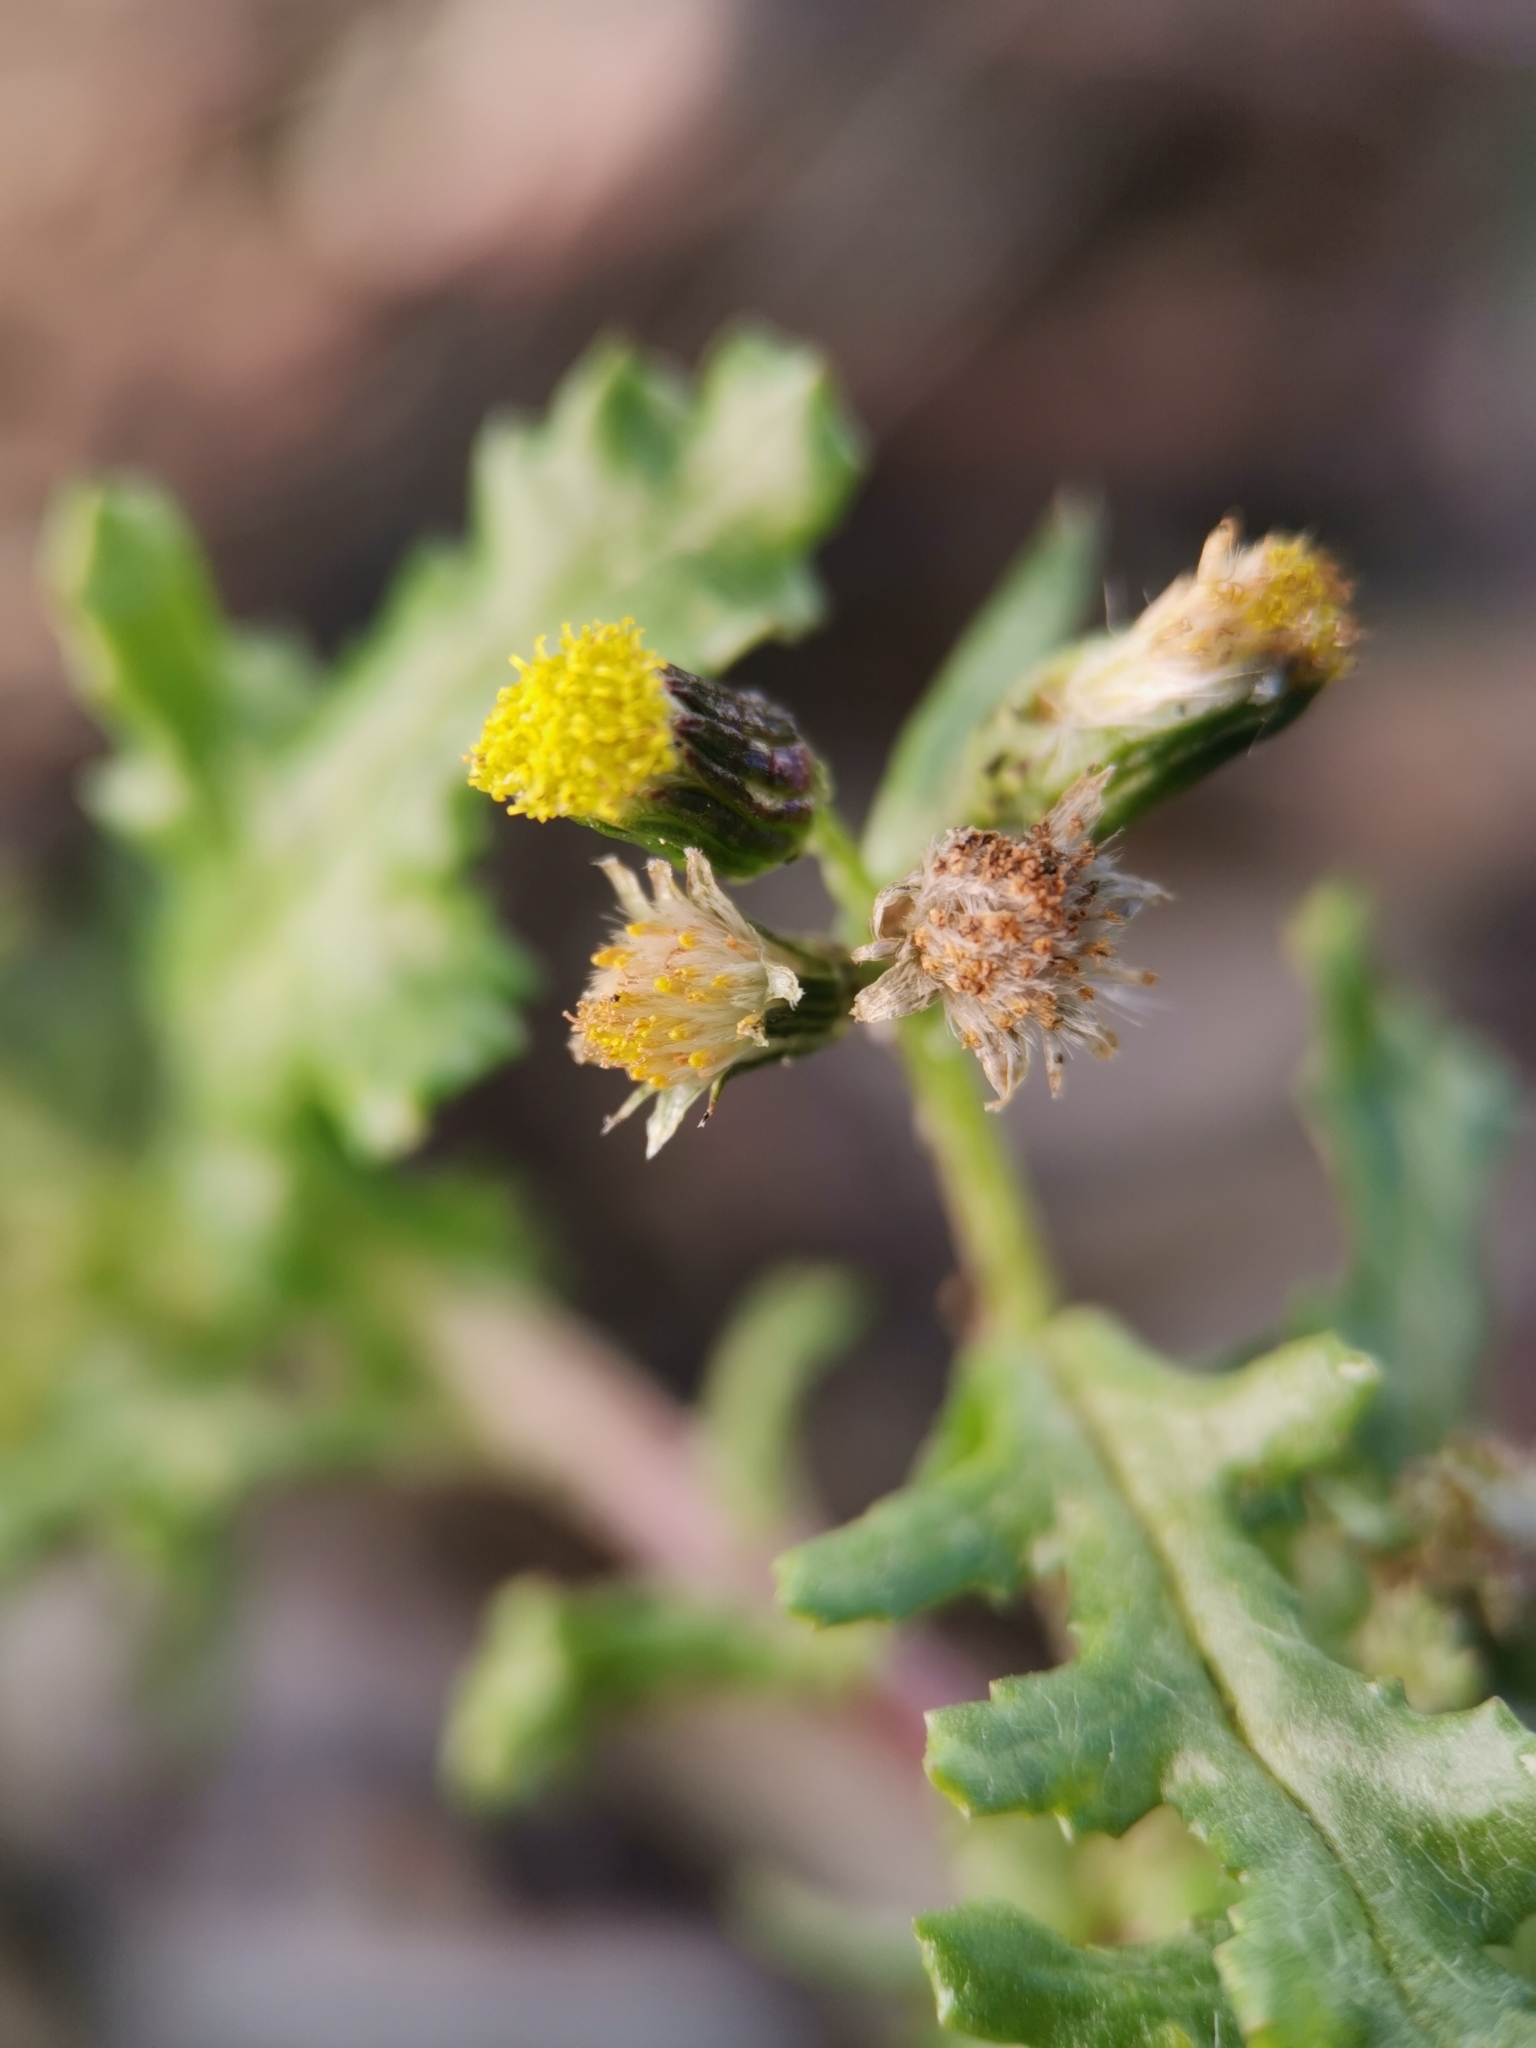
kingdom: Plantae
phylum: Tracheophyta
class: Magnoliopsida
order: Asterales
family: Asteraceae
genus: Senecio
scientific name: Senecio vulgaris
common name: Old-man-in-the-spring
